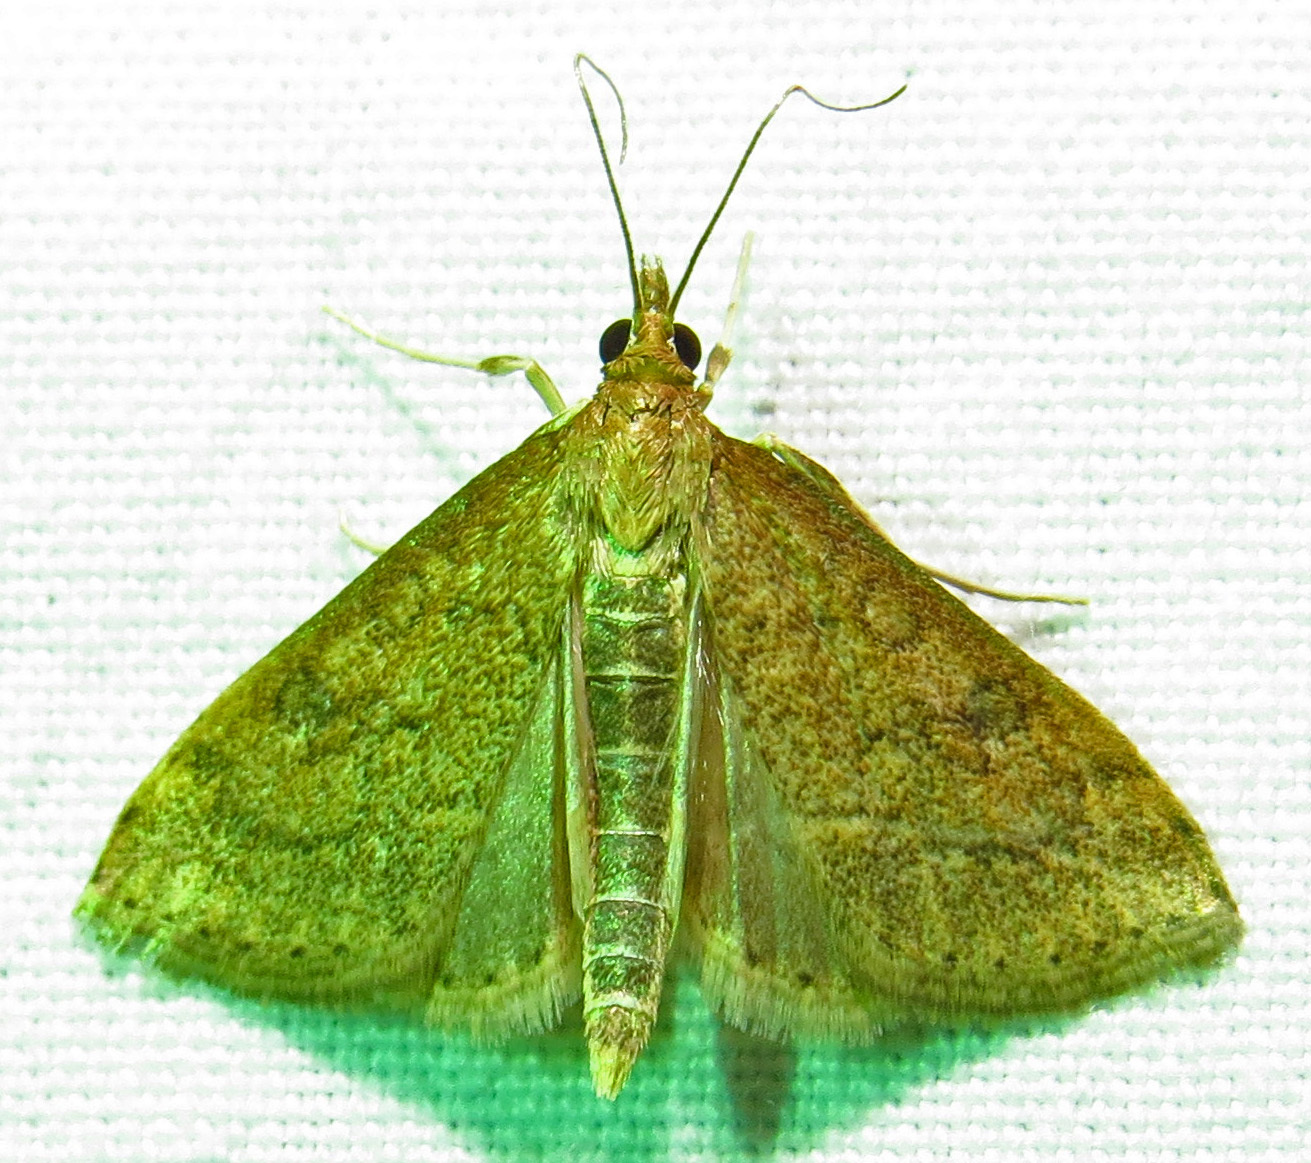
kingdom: Animalia
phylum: Arthropoda
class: Insecta
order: Lepidoptera
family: Crambidae
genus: Udea
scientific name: Udea rubigalis
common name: Celery leaftier moth
